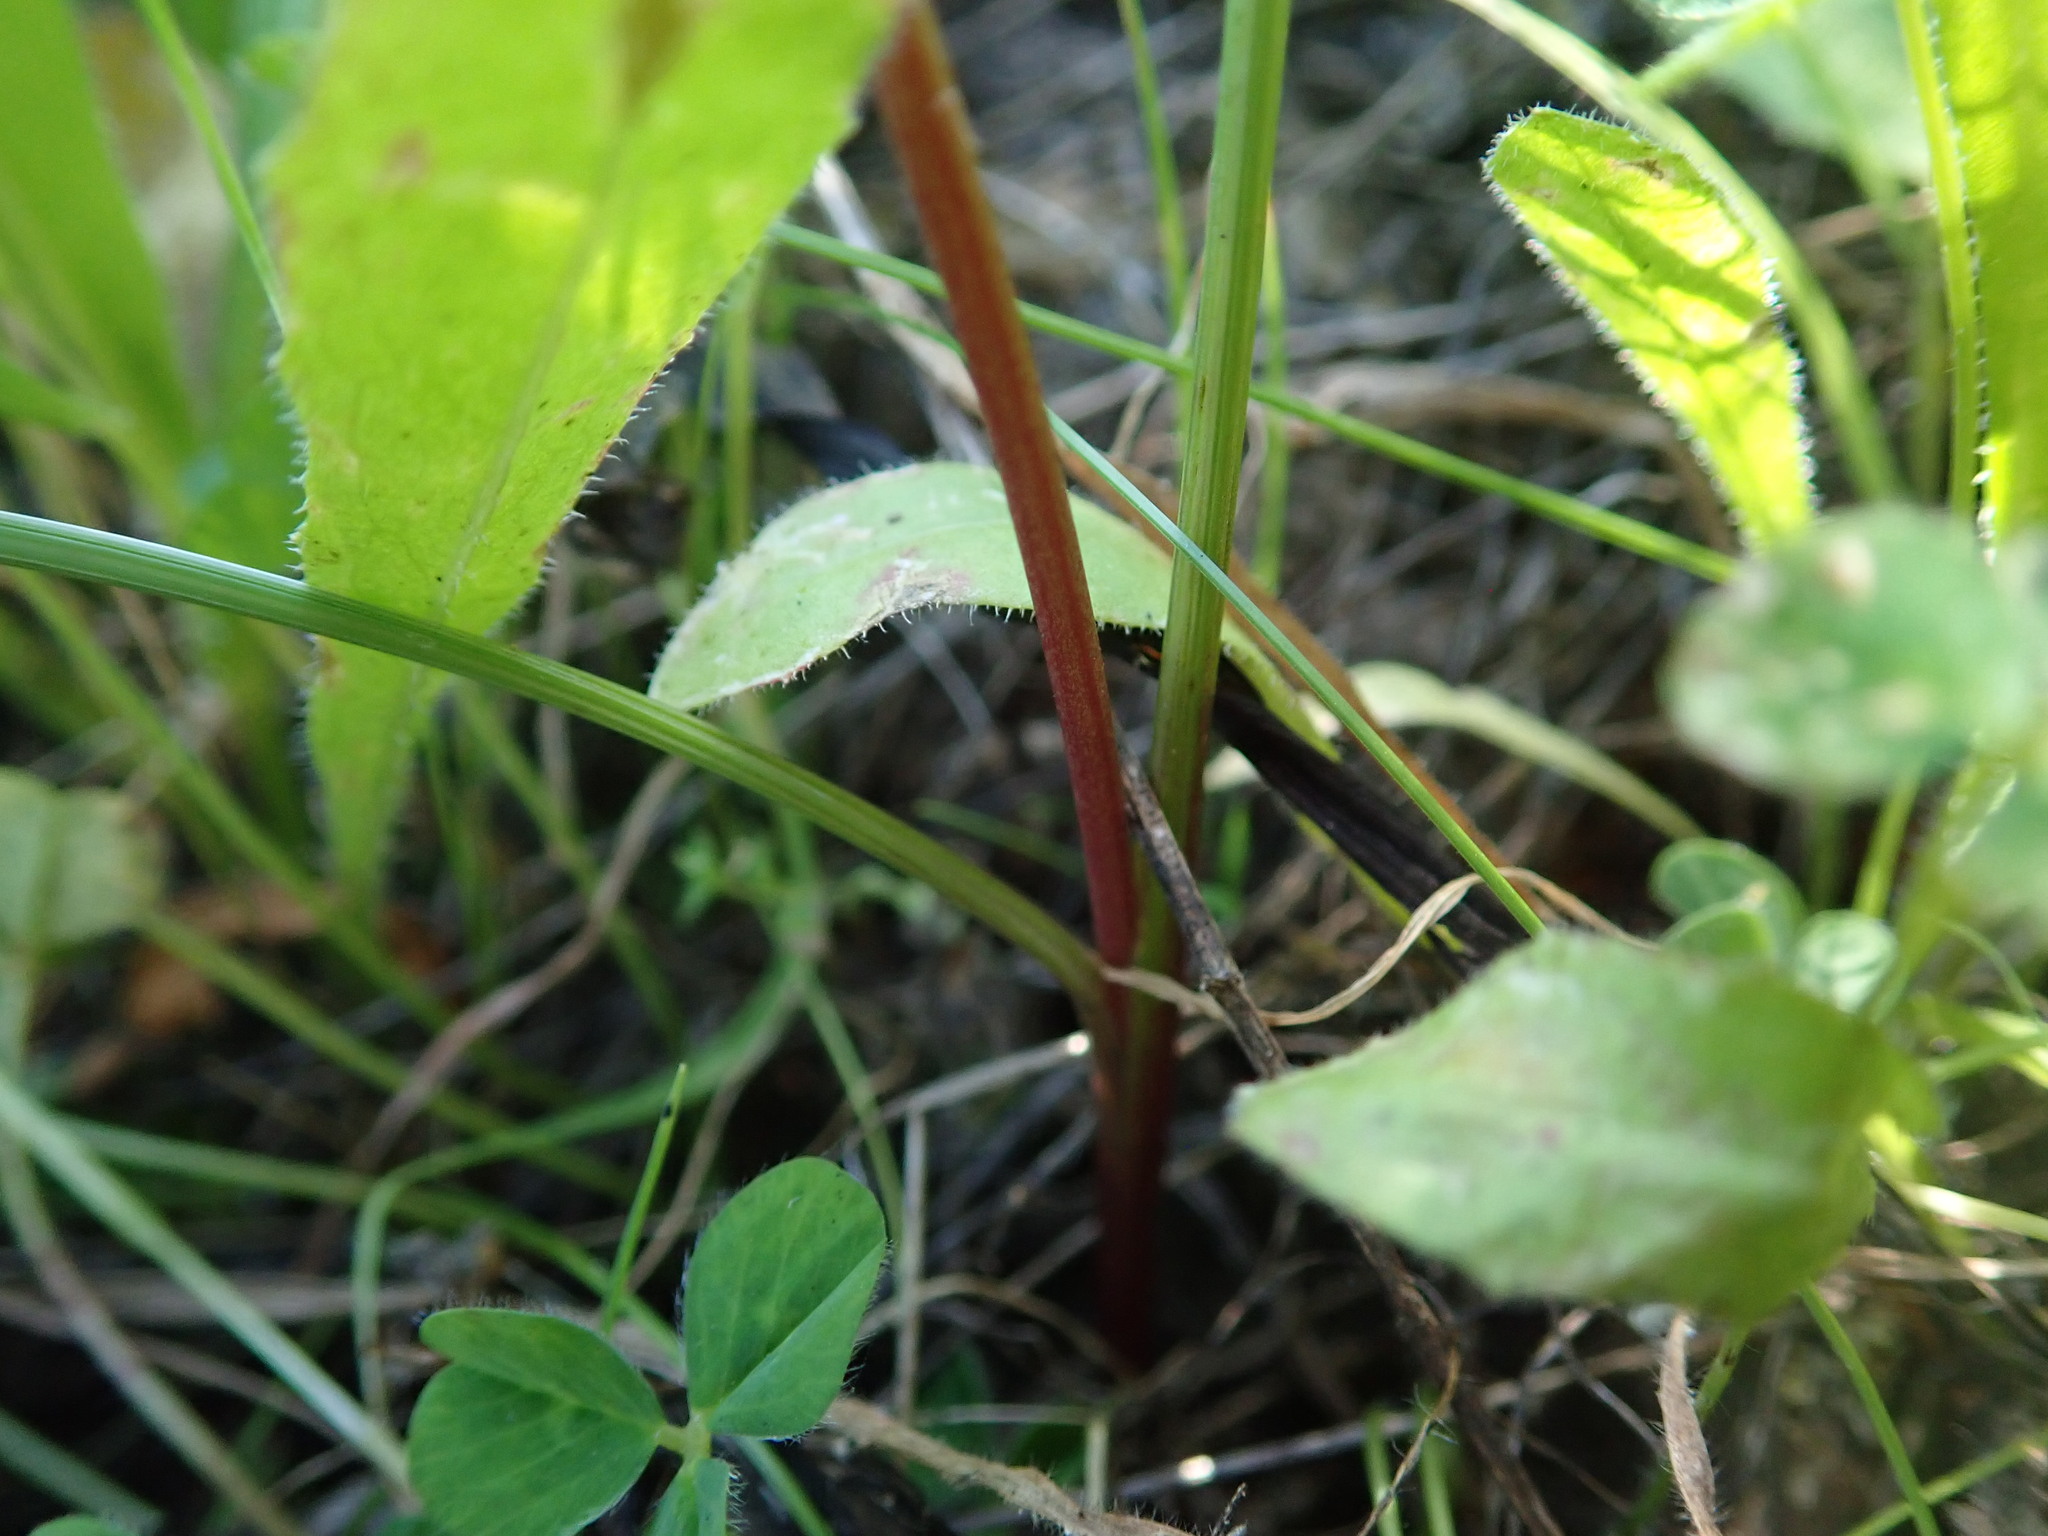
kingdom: Plantae
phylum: Tracheophyta
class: Liliopsida
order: Asparagales
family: Iridaceae
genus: Romulea
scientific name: Romulea columnae
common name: Sand-crocus
